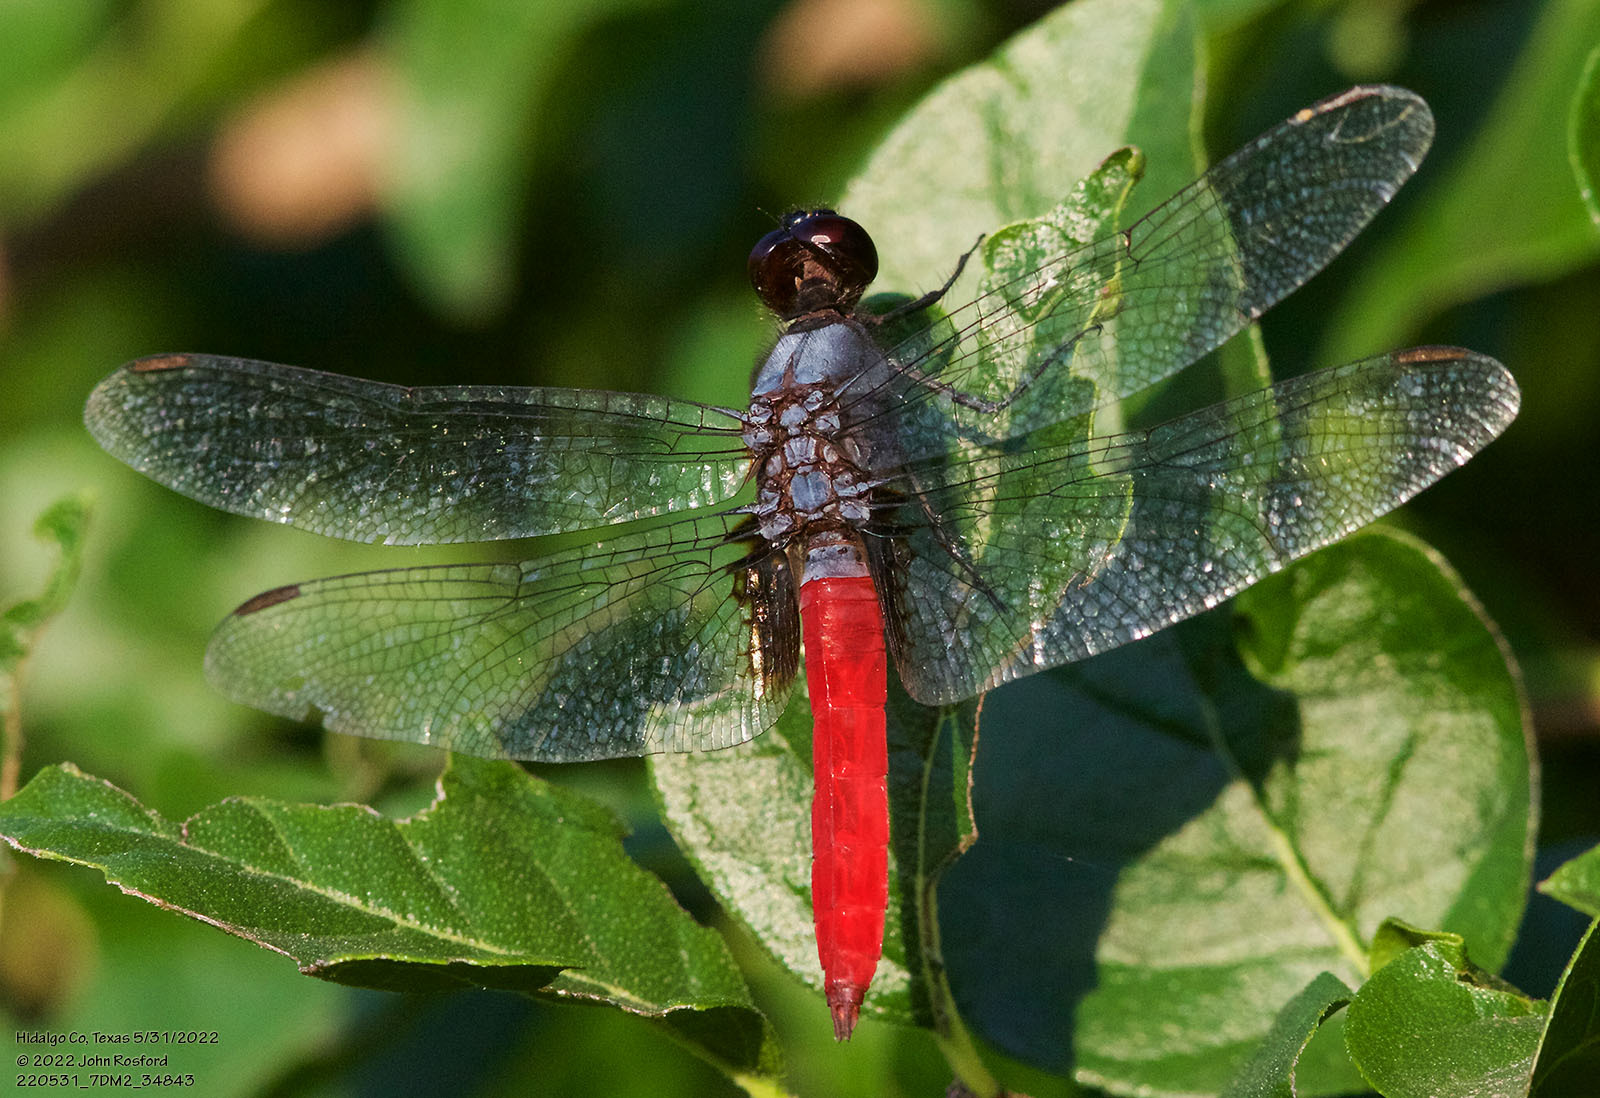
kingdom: Animalia
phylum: Arthropoda
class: Insecta
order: Odonata
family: Libellulidae
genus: Planiplax
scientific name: Planiplax sanguiniventris
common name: Mexican scarlet-tail
